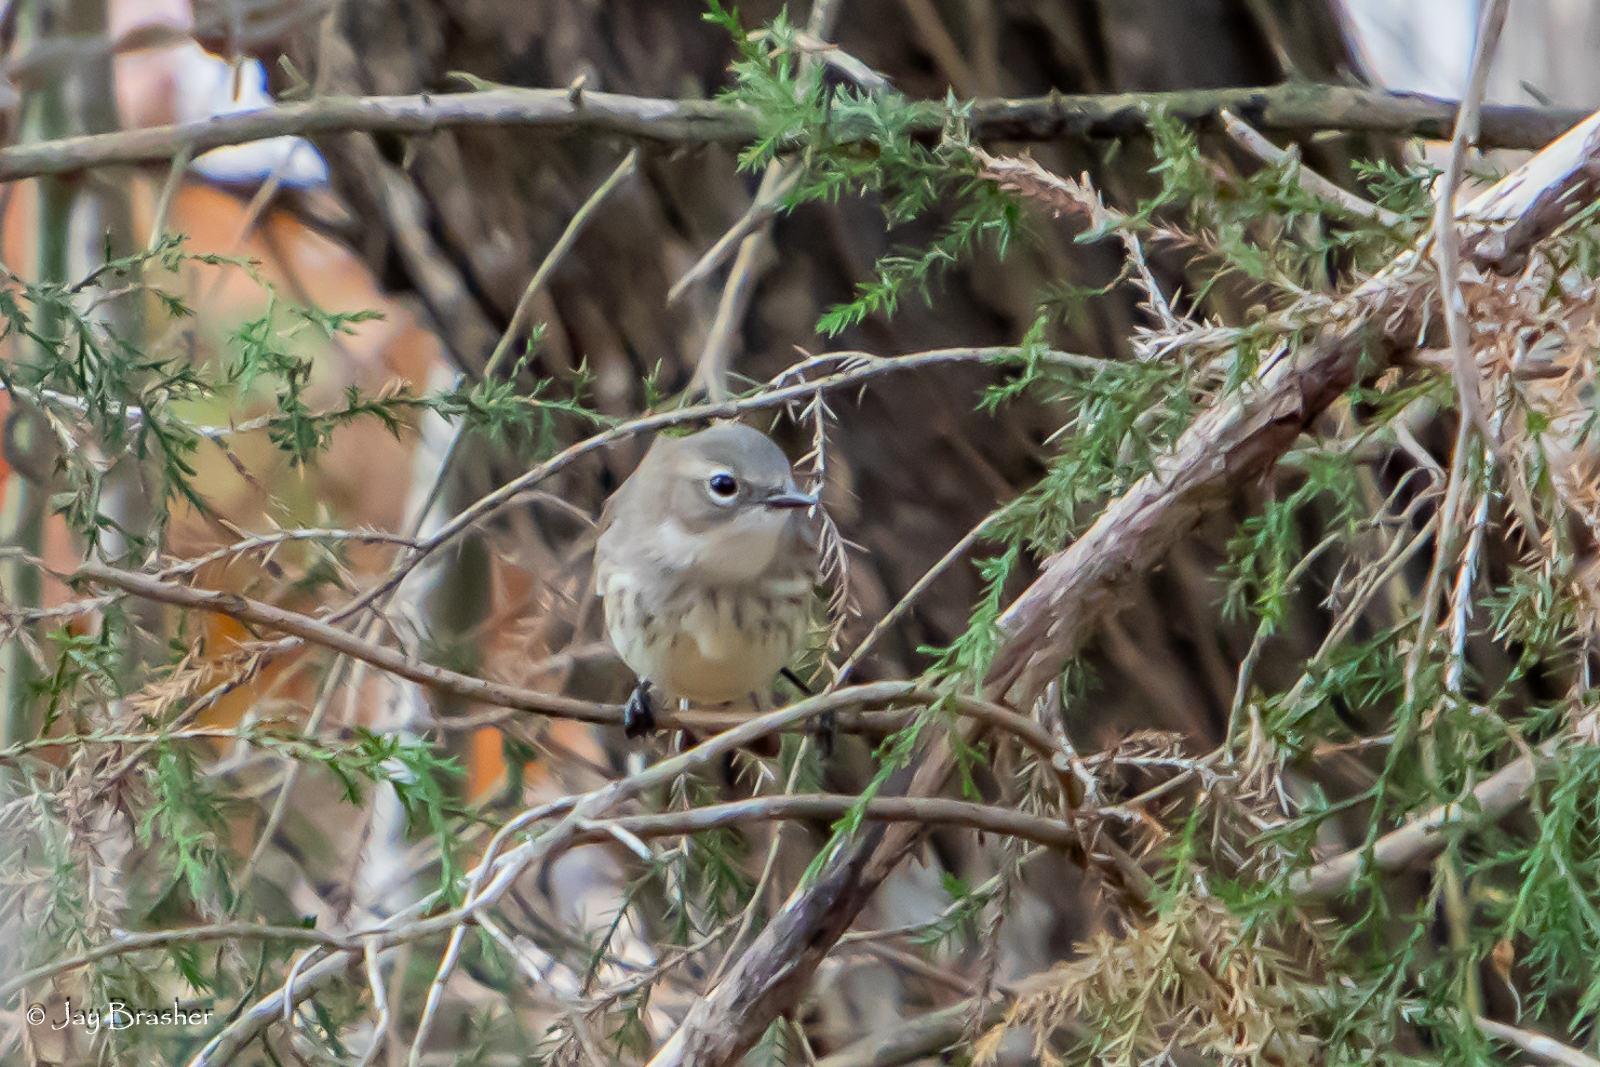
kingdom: Animalia
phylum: Chordata
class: Aves
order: Passeriformes
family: Parulidae
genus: Setophaga
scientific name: Setophaga coronata
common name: Myrtle warbler
